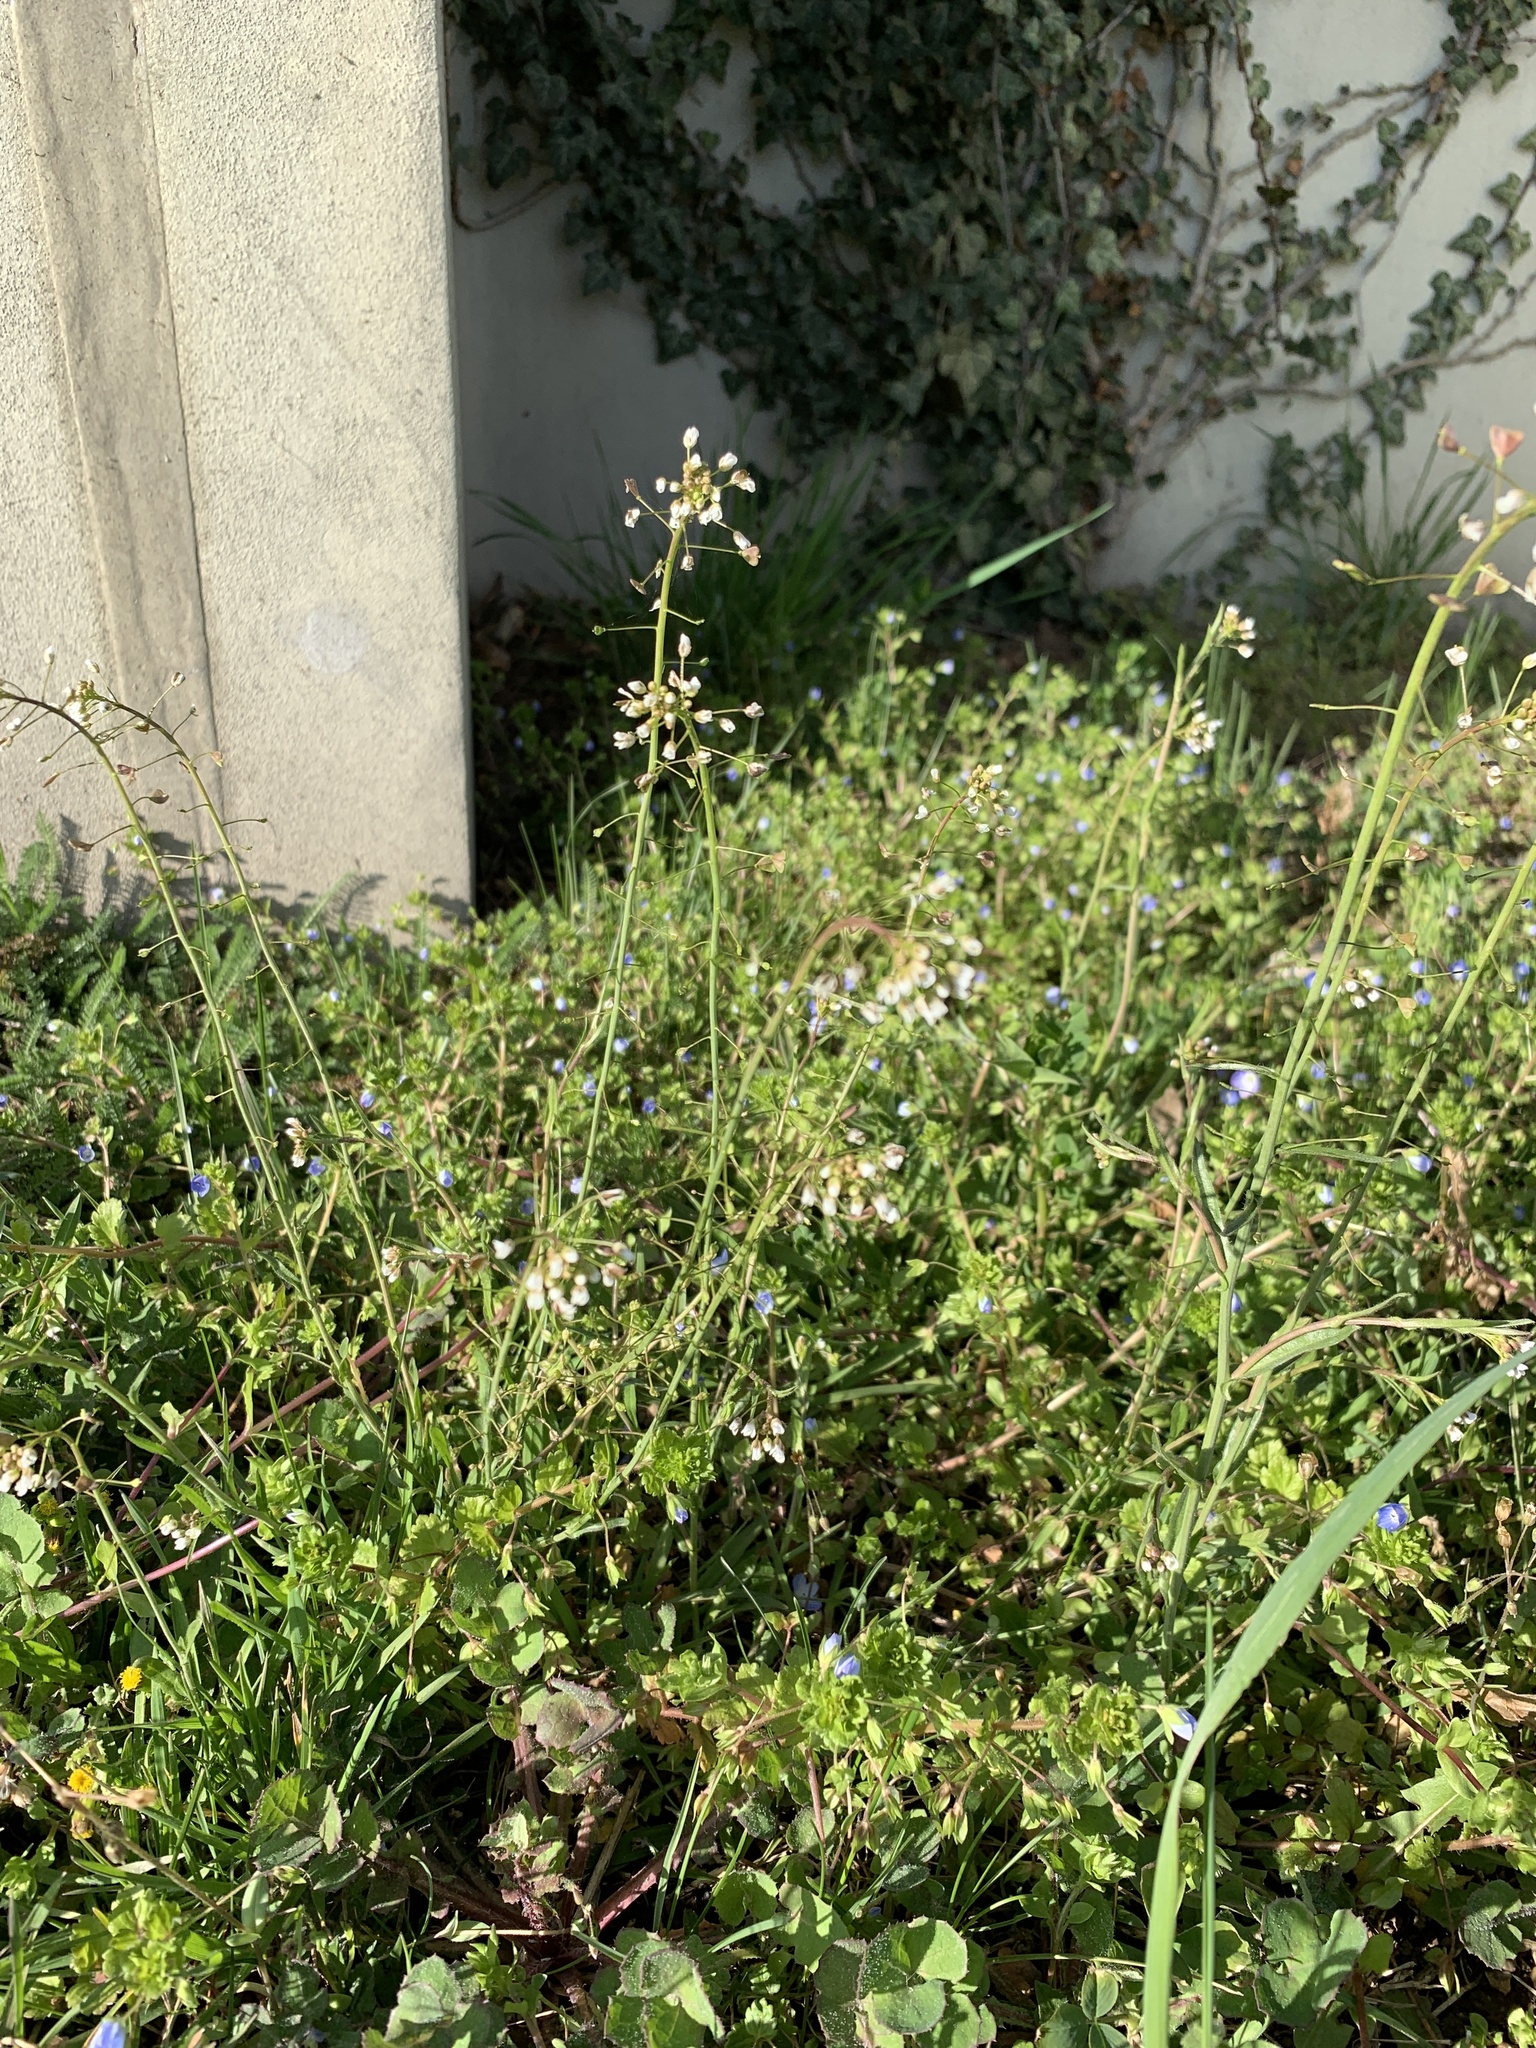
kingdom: Plantae
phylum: Tracheophyta
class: Magnoliopsida
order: Brassicales
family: Brassicaceae
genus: Capsella
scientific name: Capsella bursa-pastoris
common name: Shepherd's purse
